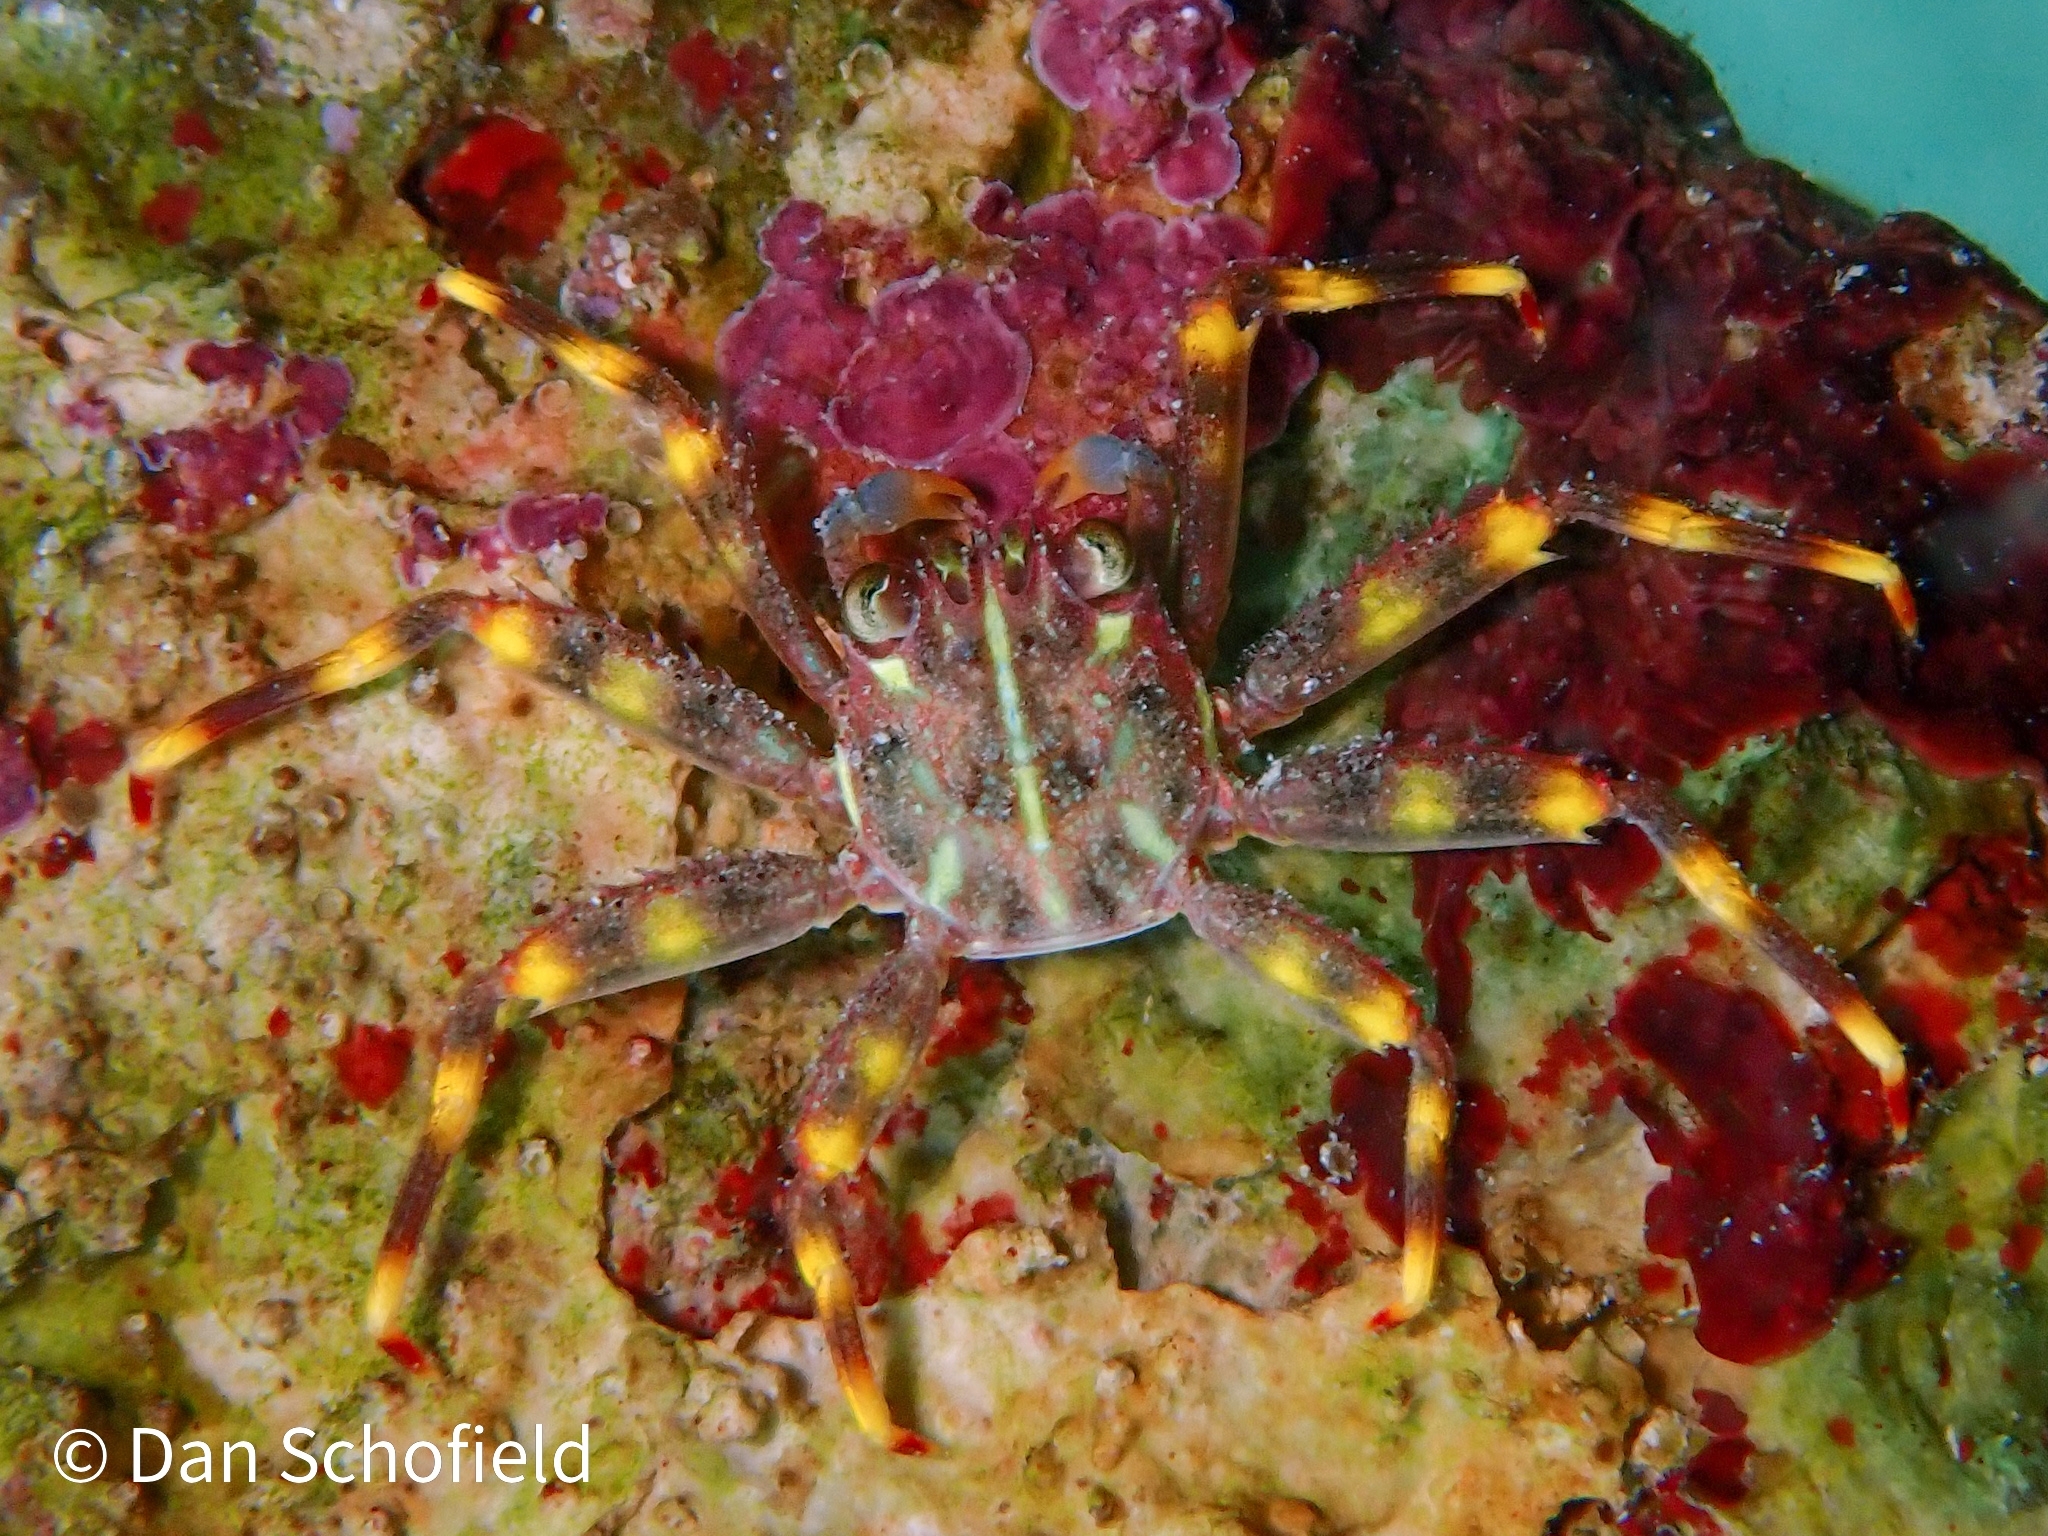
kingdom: Animalia
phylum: Arthropoda
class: Malacostraca
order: Decapoda
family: Percnidae
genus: Percnon
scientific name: Percnon gibbesi
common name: Nimble spray crab
